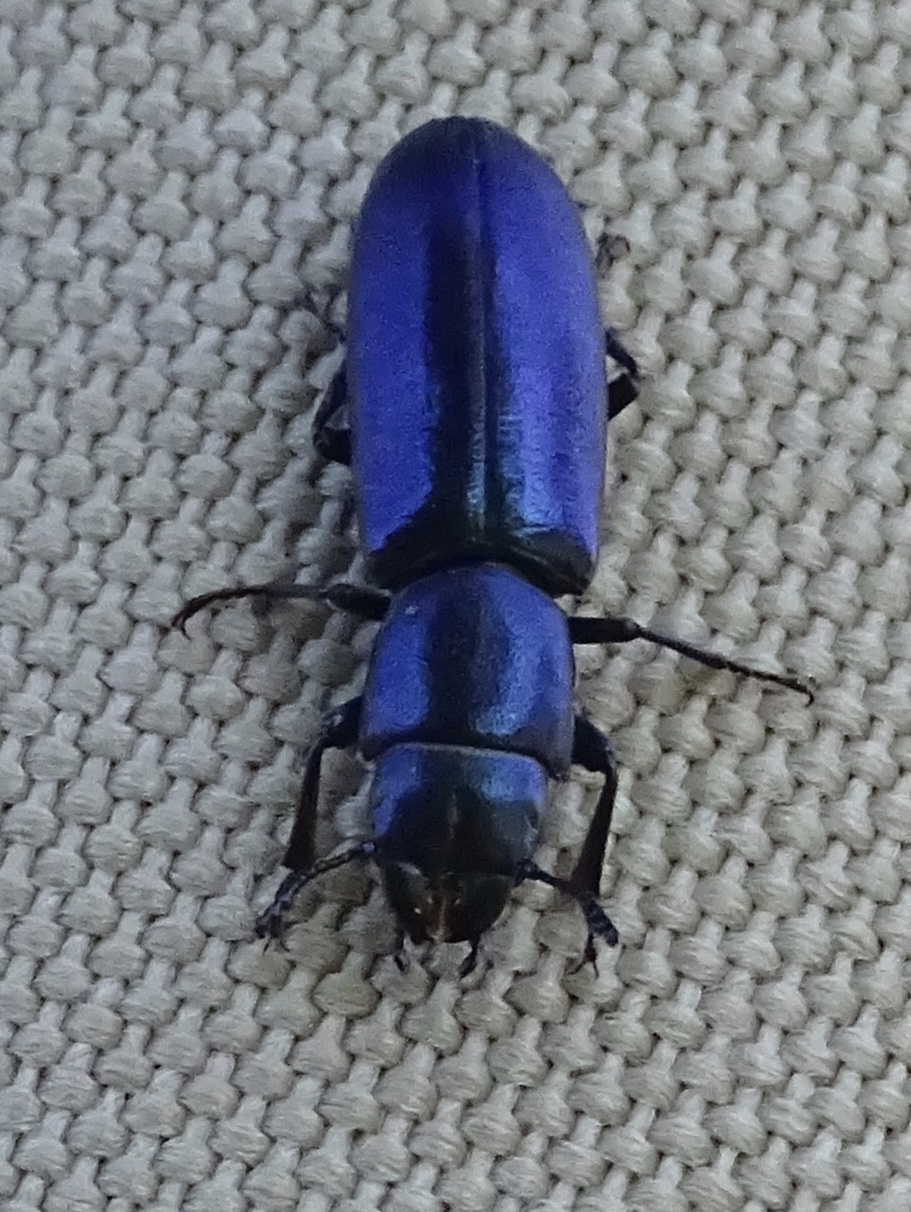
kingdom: Animalia
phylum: Arthropoda
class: Insecta
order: Coleoptera
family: Trogossitidae
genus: Temnoscheila
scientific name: Temnoscheila chlorodia
